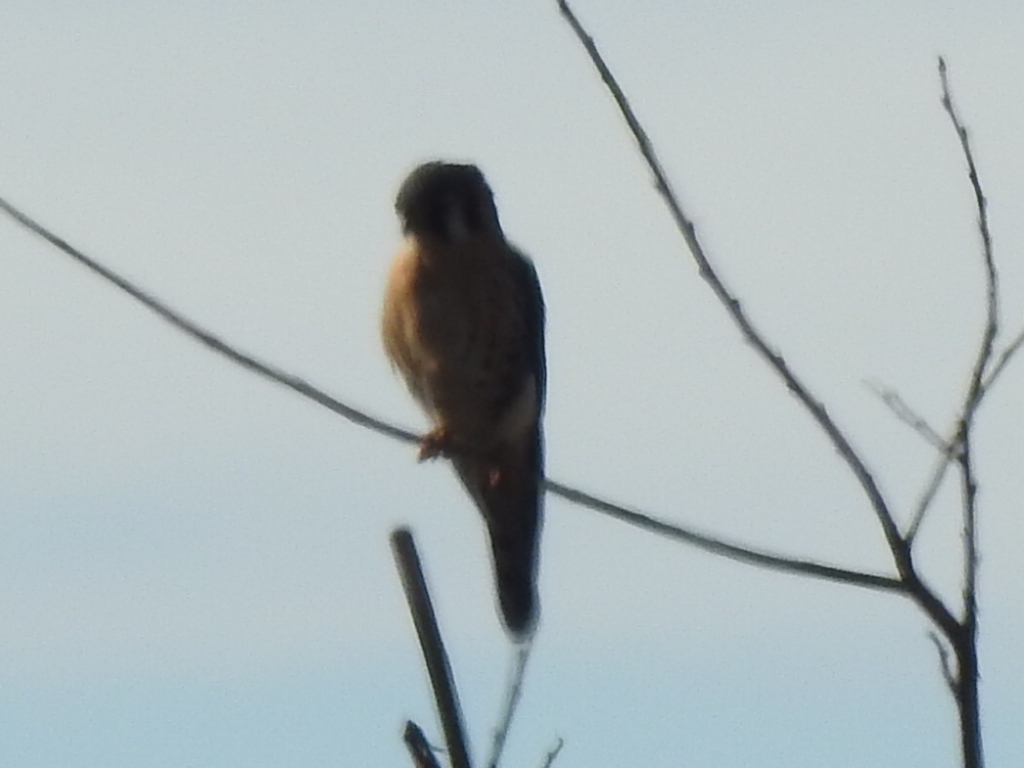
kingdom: Animalia
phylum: Chordata
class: Aves
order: Falconiformes
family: Falconidae
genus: Falco
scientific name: Falco sparverius
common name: American kestrel
